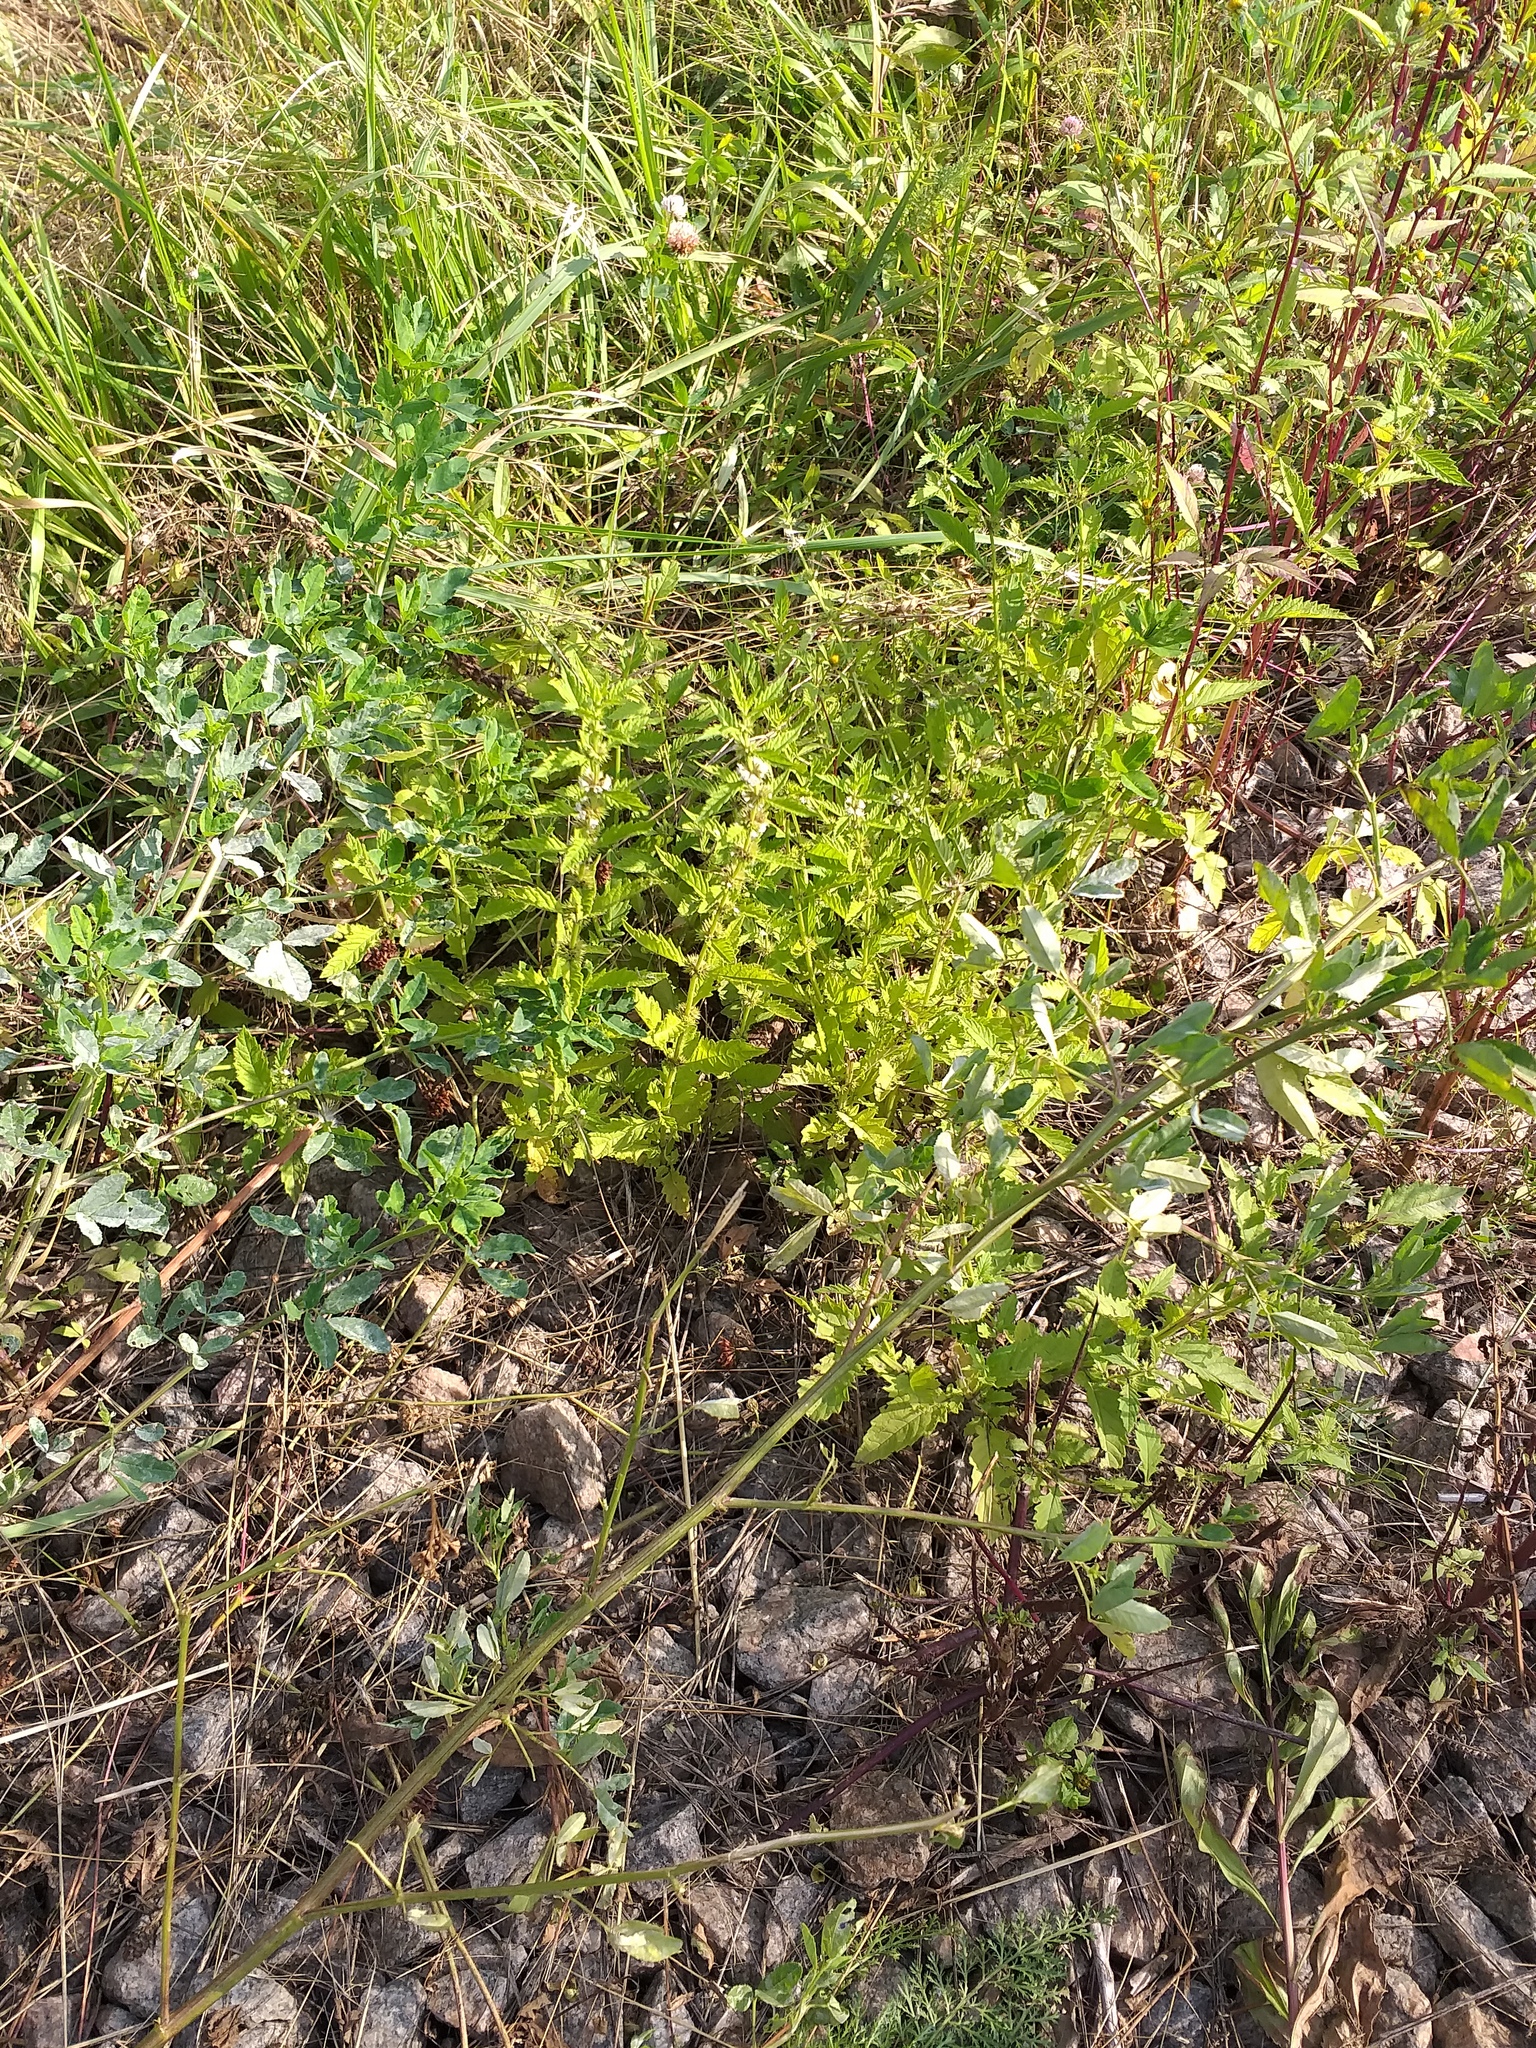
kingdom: Plantae
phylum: Tracheophyta
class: Magnoliopsida
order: Lamiales
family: Lamiaceae
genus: Lycopus
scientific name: Lycopus europaeus
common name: European bugleweed
